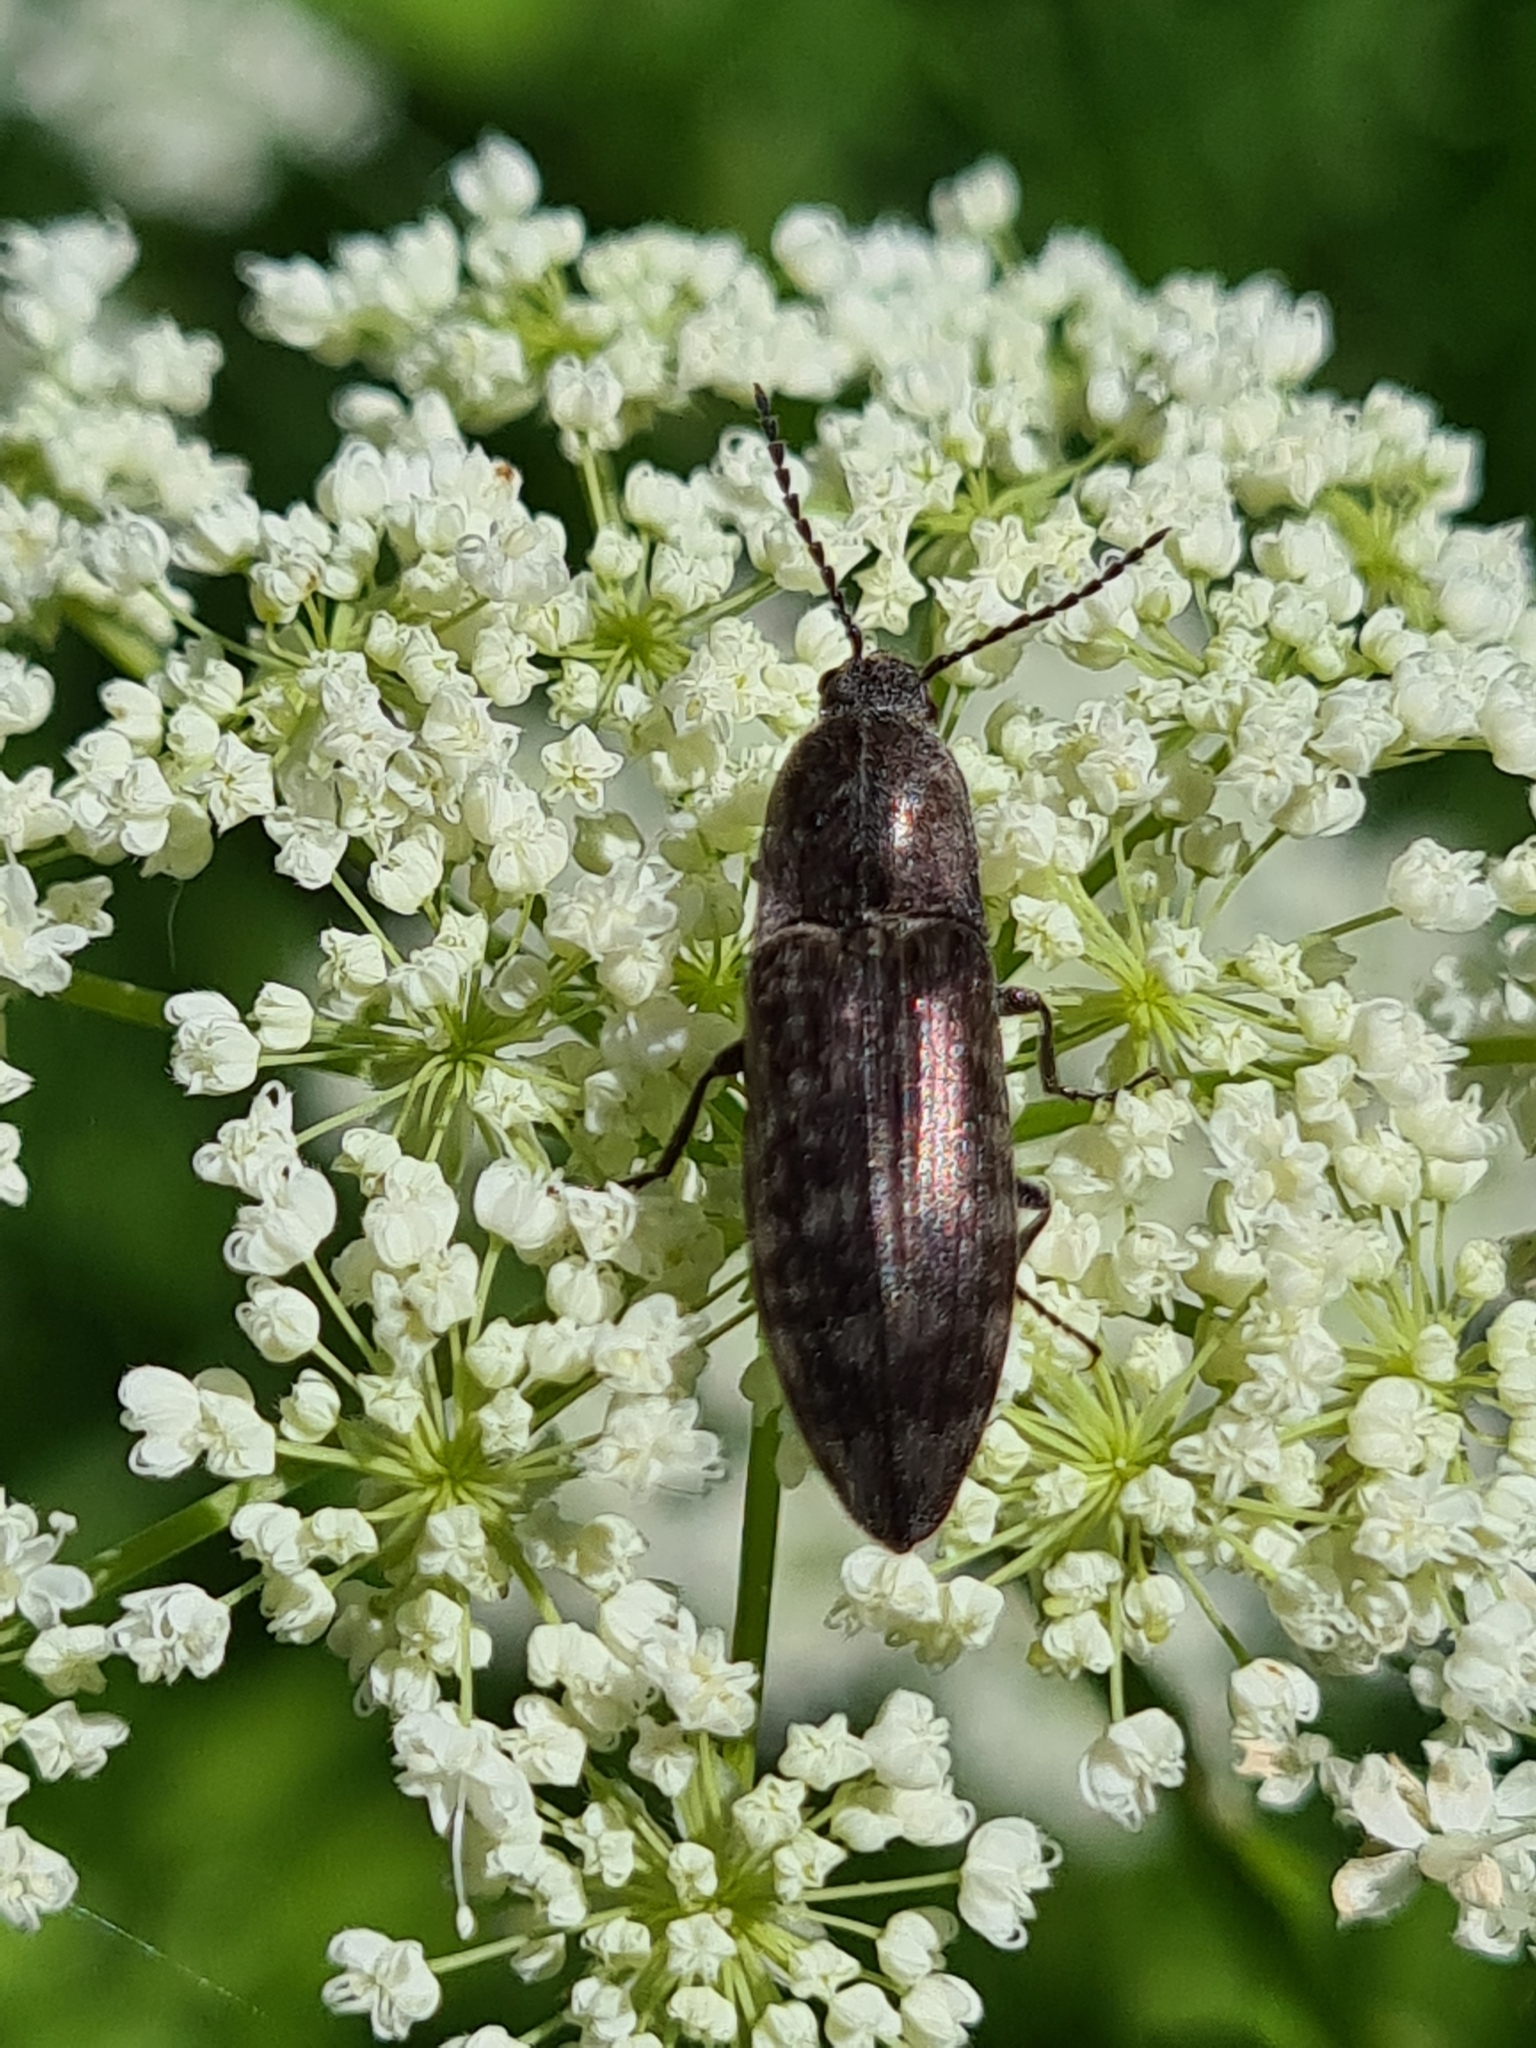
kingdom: Animalia
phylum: Arthropoda
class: Insecta
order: Coleoptera
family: Elateridae
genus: Actenicerus
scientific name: Actenicerus sjaelandicus
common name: Marsh click beetle
